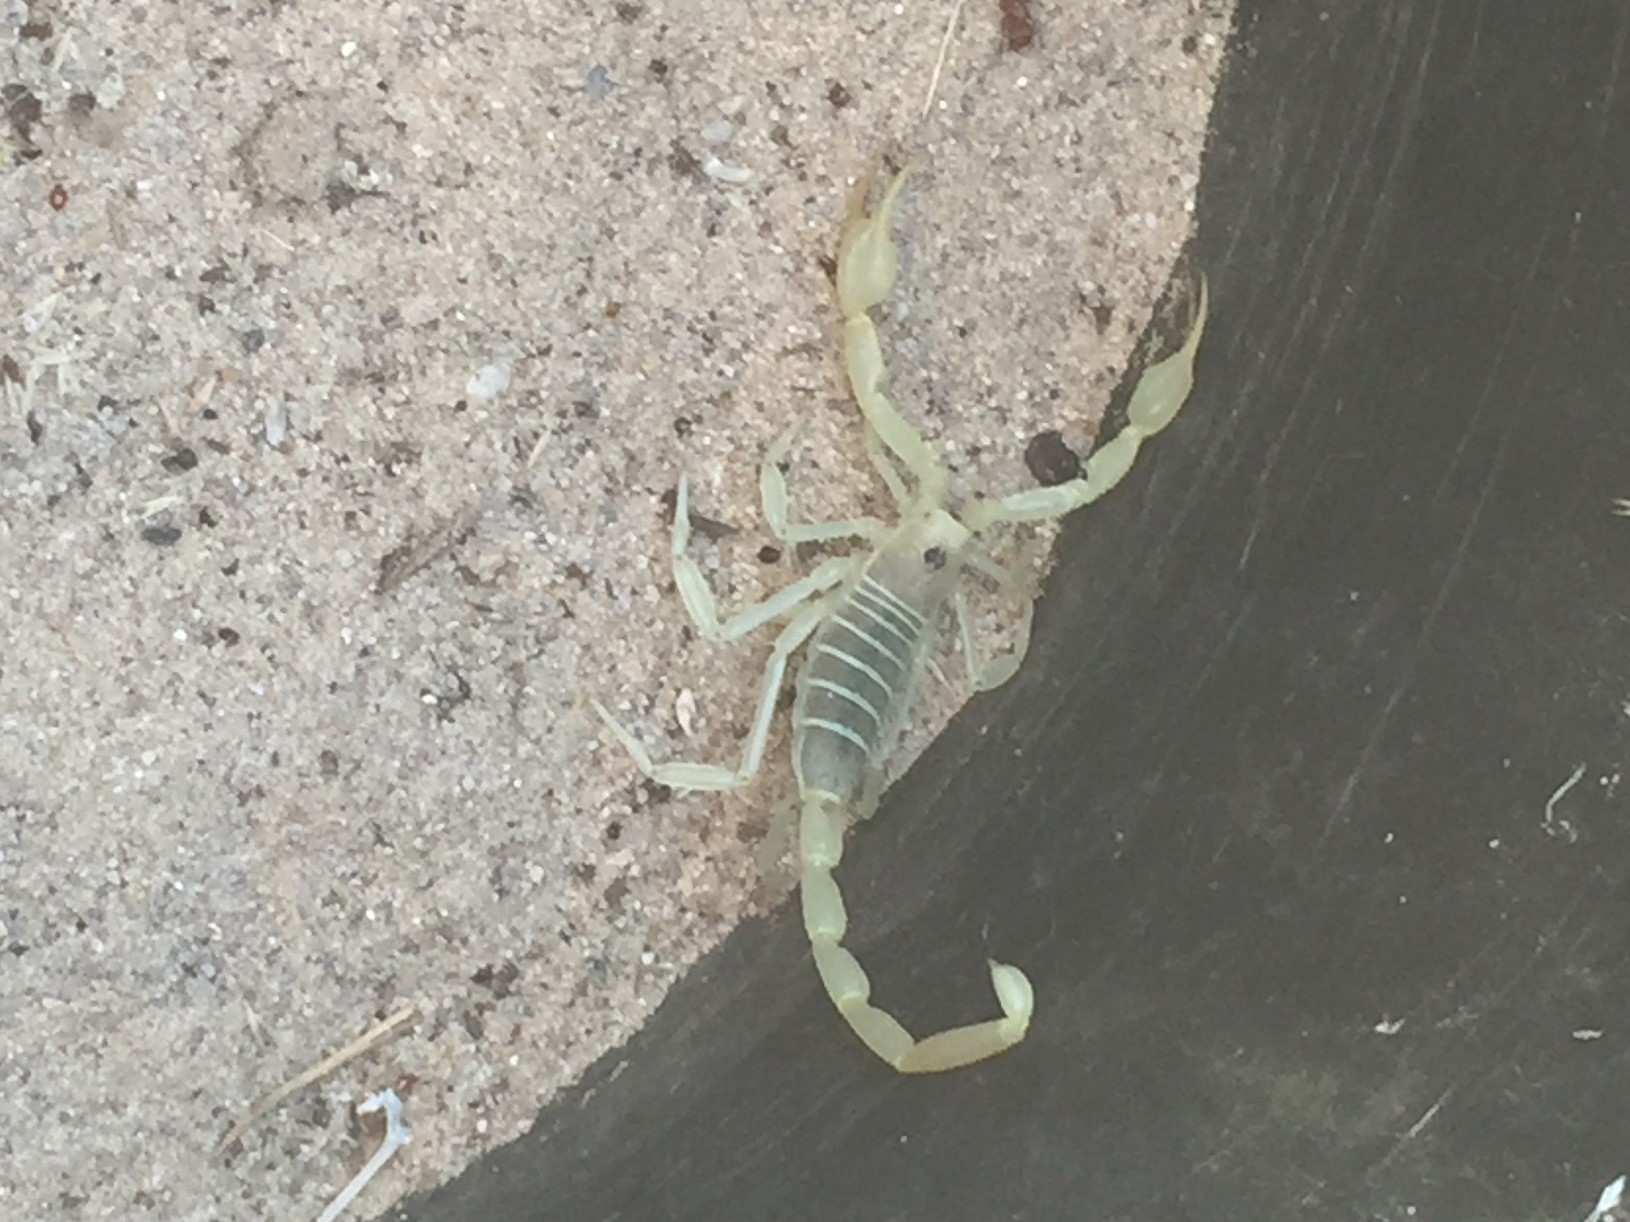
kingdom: Animalia
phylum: Arthropoda
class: Arachnida
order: Scorpiones
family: Vaejovidae
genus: Smeringurus
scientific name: Smeringurus mesaensis
